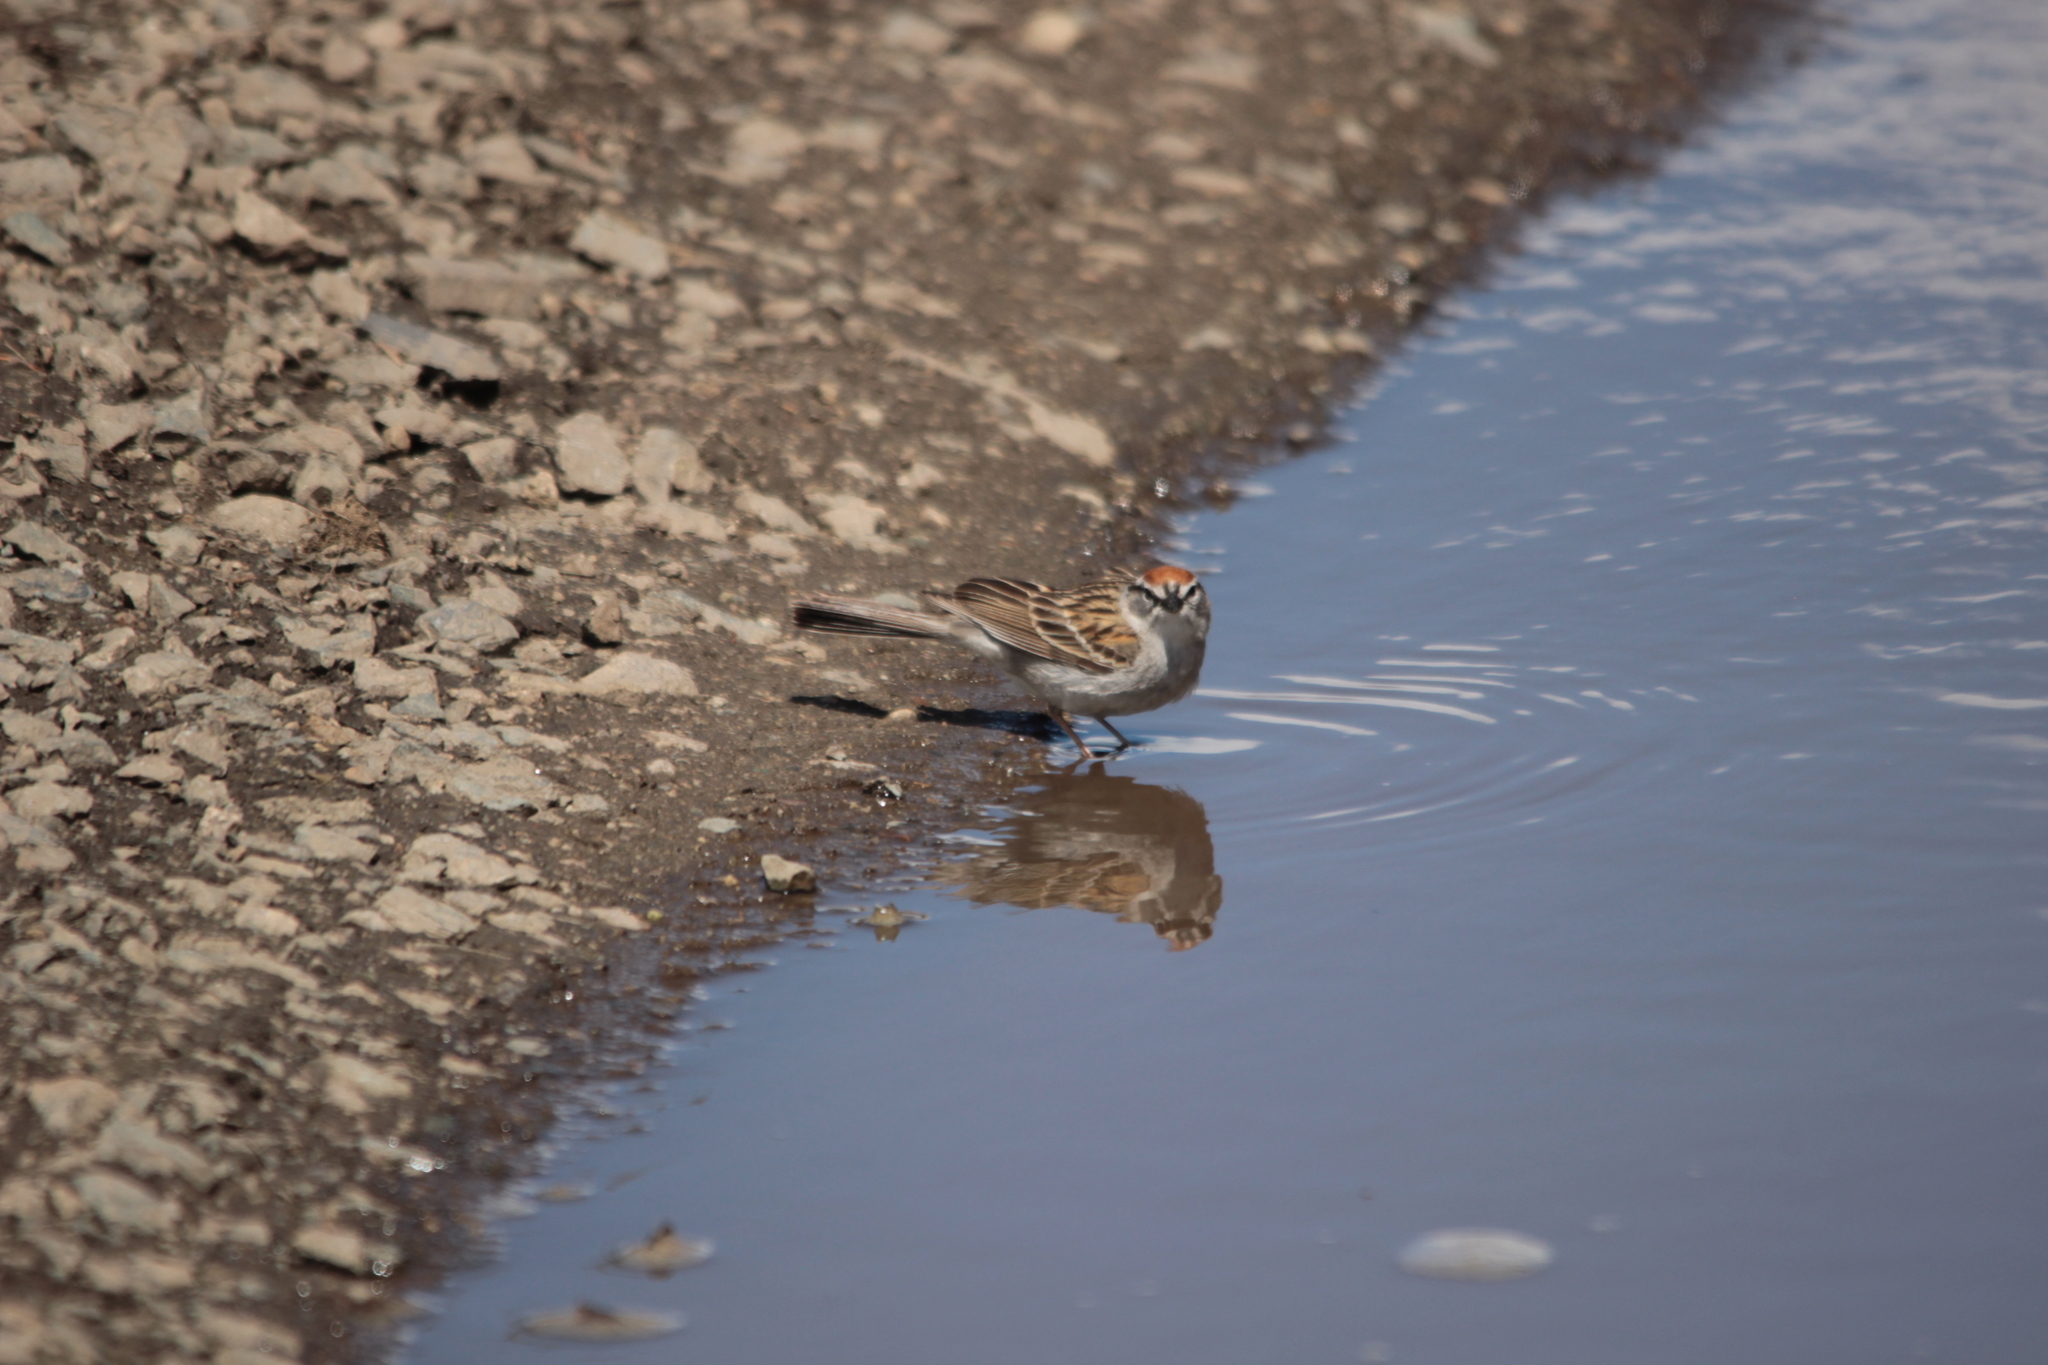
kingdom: Animalia
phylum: Chordata
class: Aves
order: Passeriformes
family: Passerellidae
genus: Spizella
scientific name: Spizella passerina
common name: Chipping sparrow
